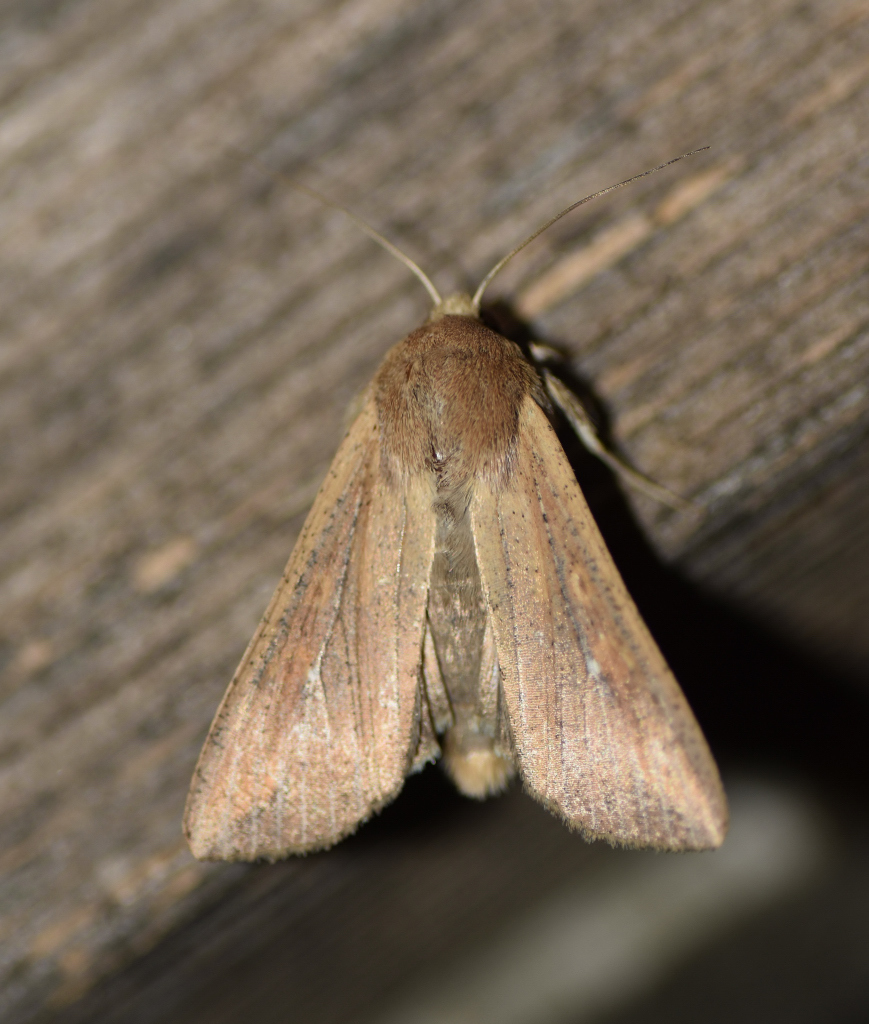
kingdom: Animalia
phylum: Arthropoda
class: Insecta
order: Lepidoptera
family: Noctuidae
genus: Mythimna
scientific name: Mythimna unipuncta
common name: White-speck
